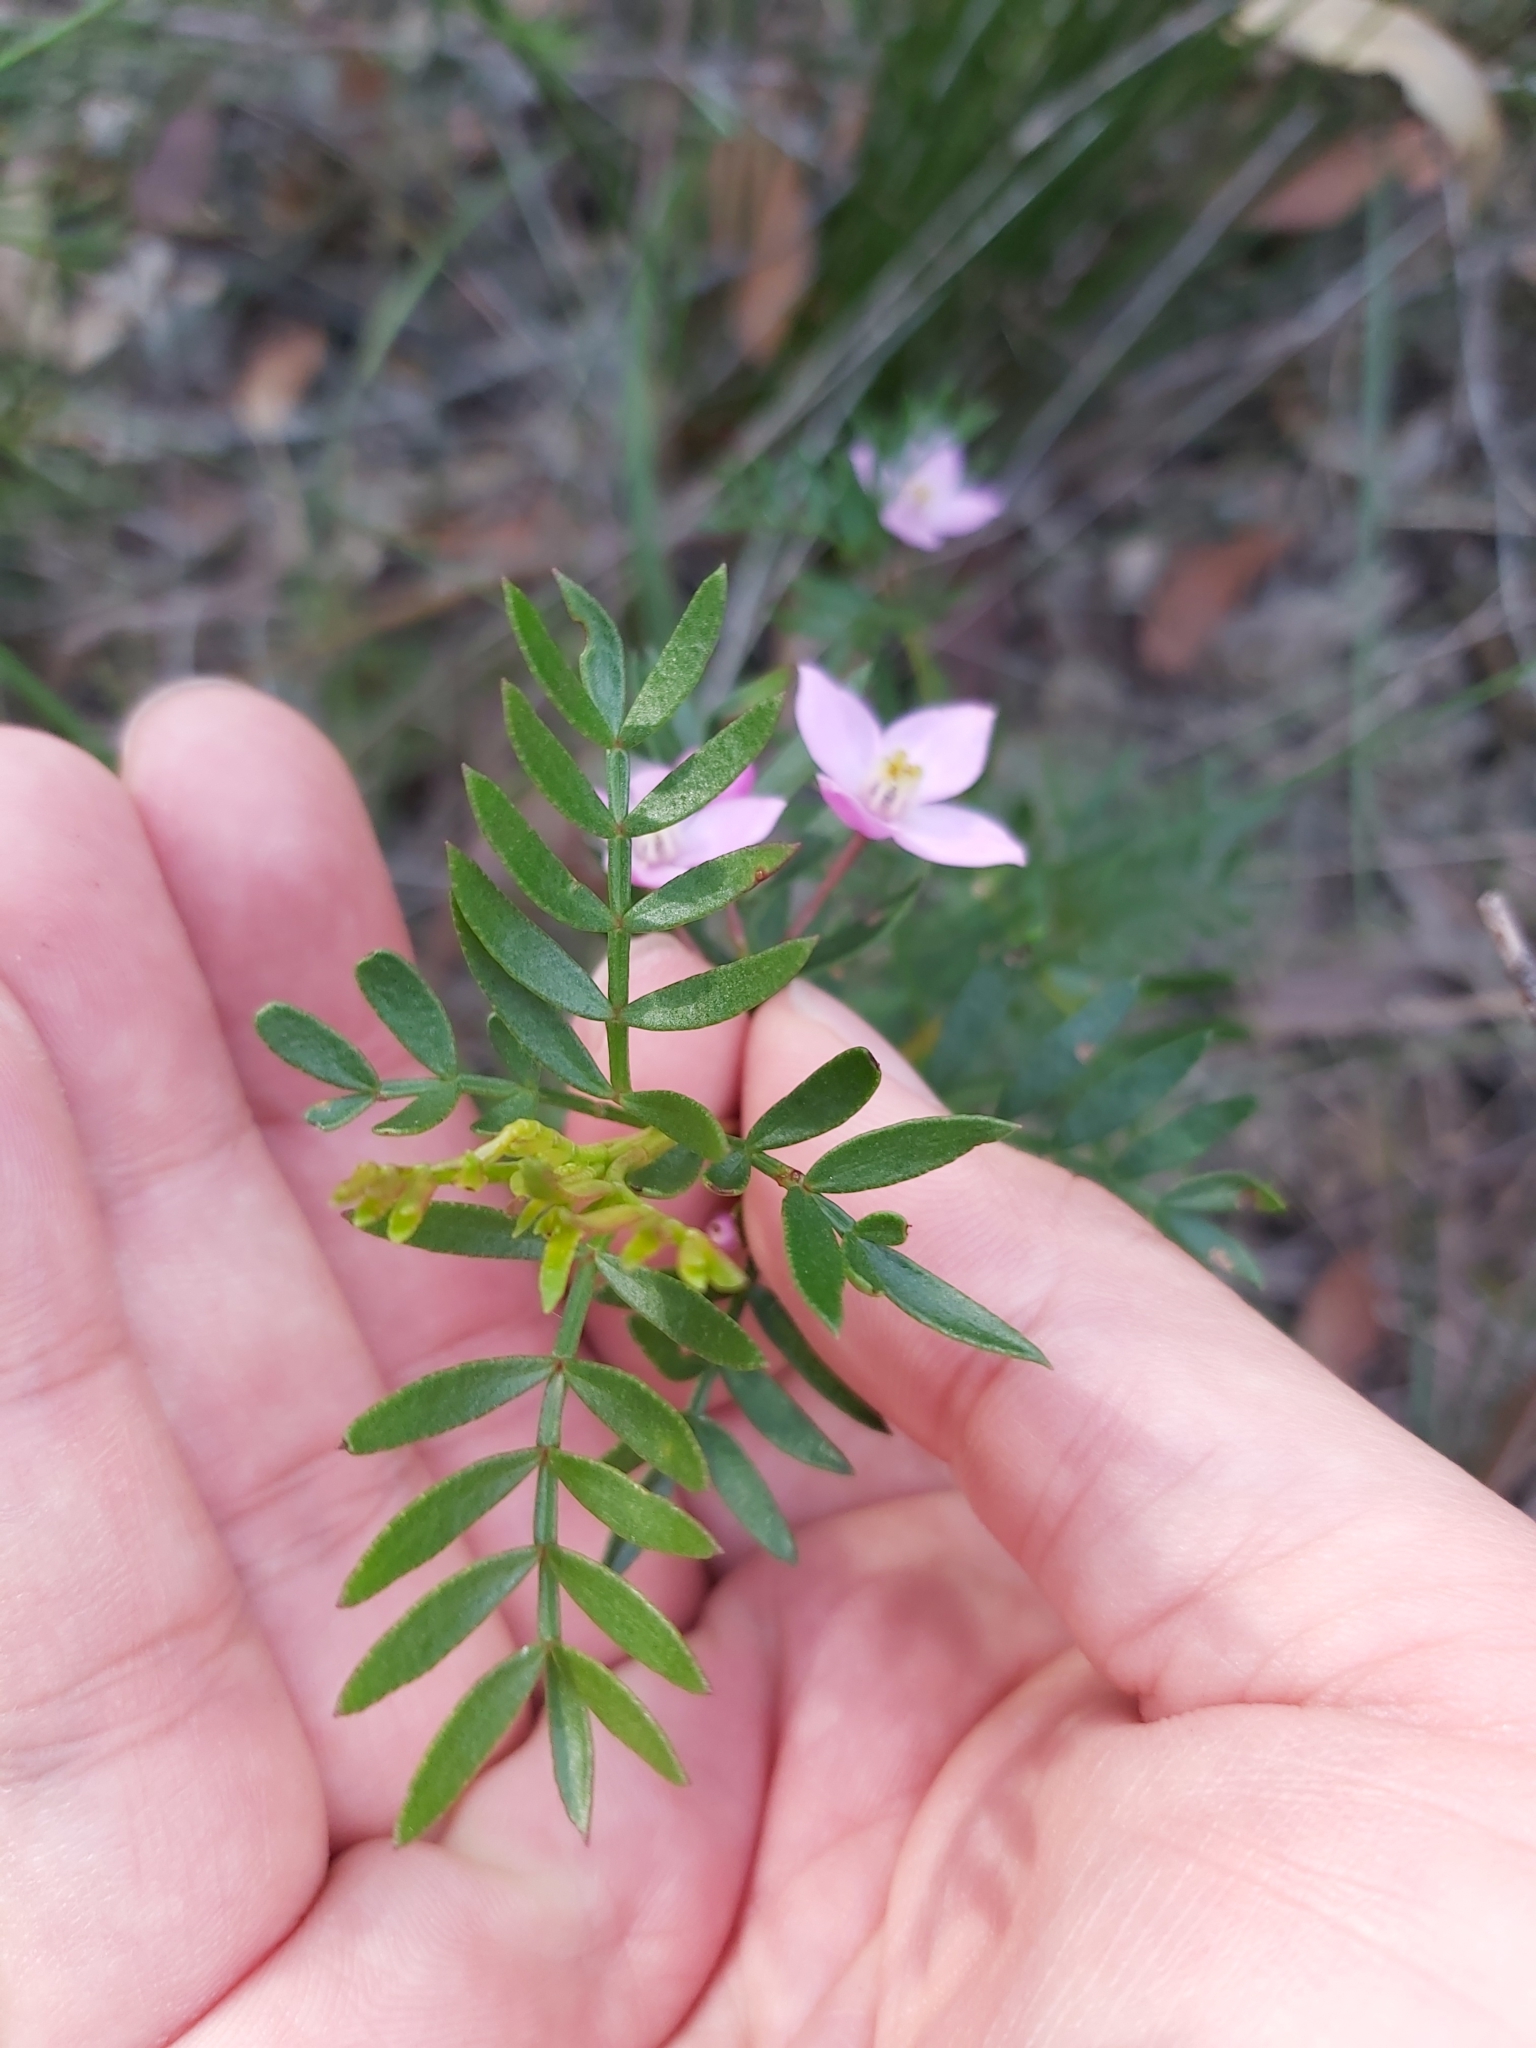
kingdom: Plantae
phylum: Tracheophyta
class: Magnoliopsida
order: Sapindales
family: Rutaceae
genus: Boronia
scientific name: Boronia pinnata
